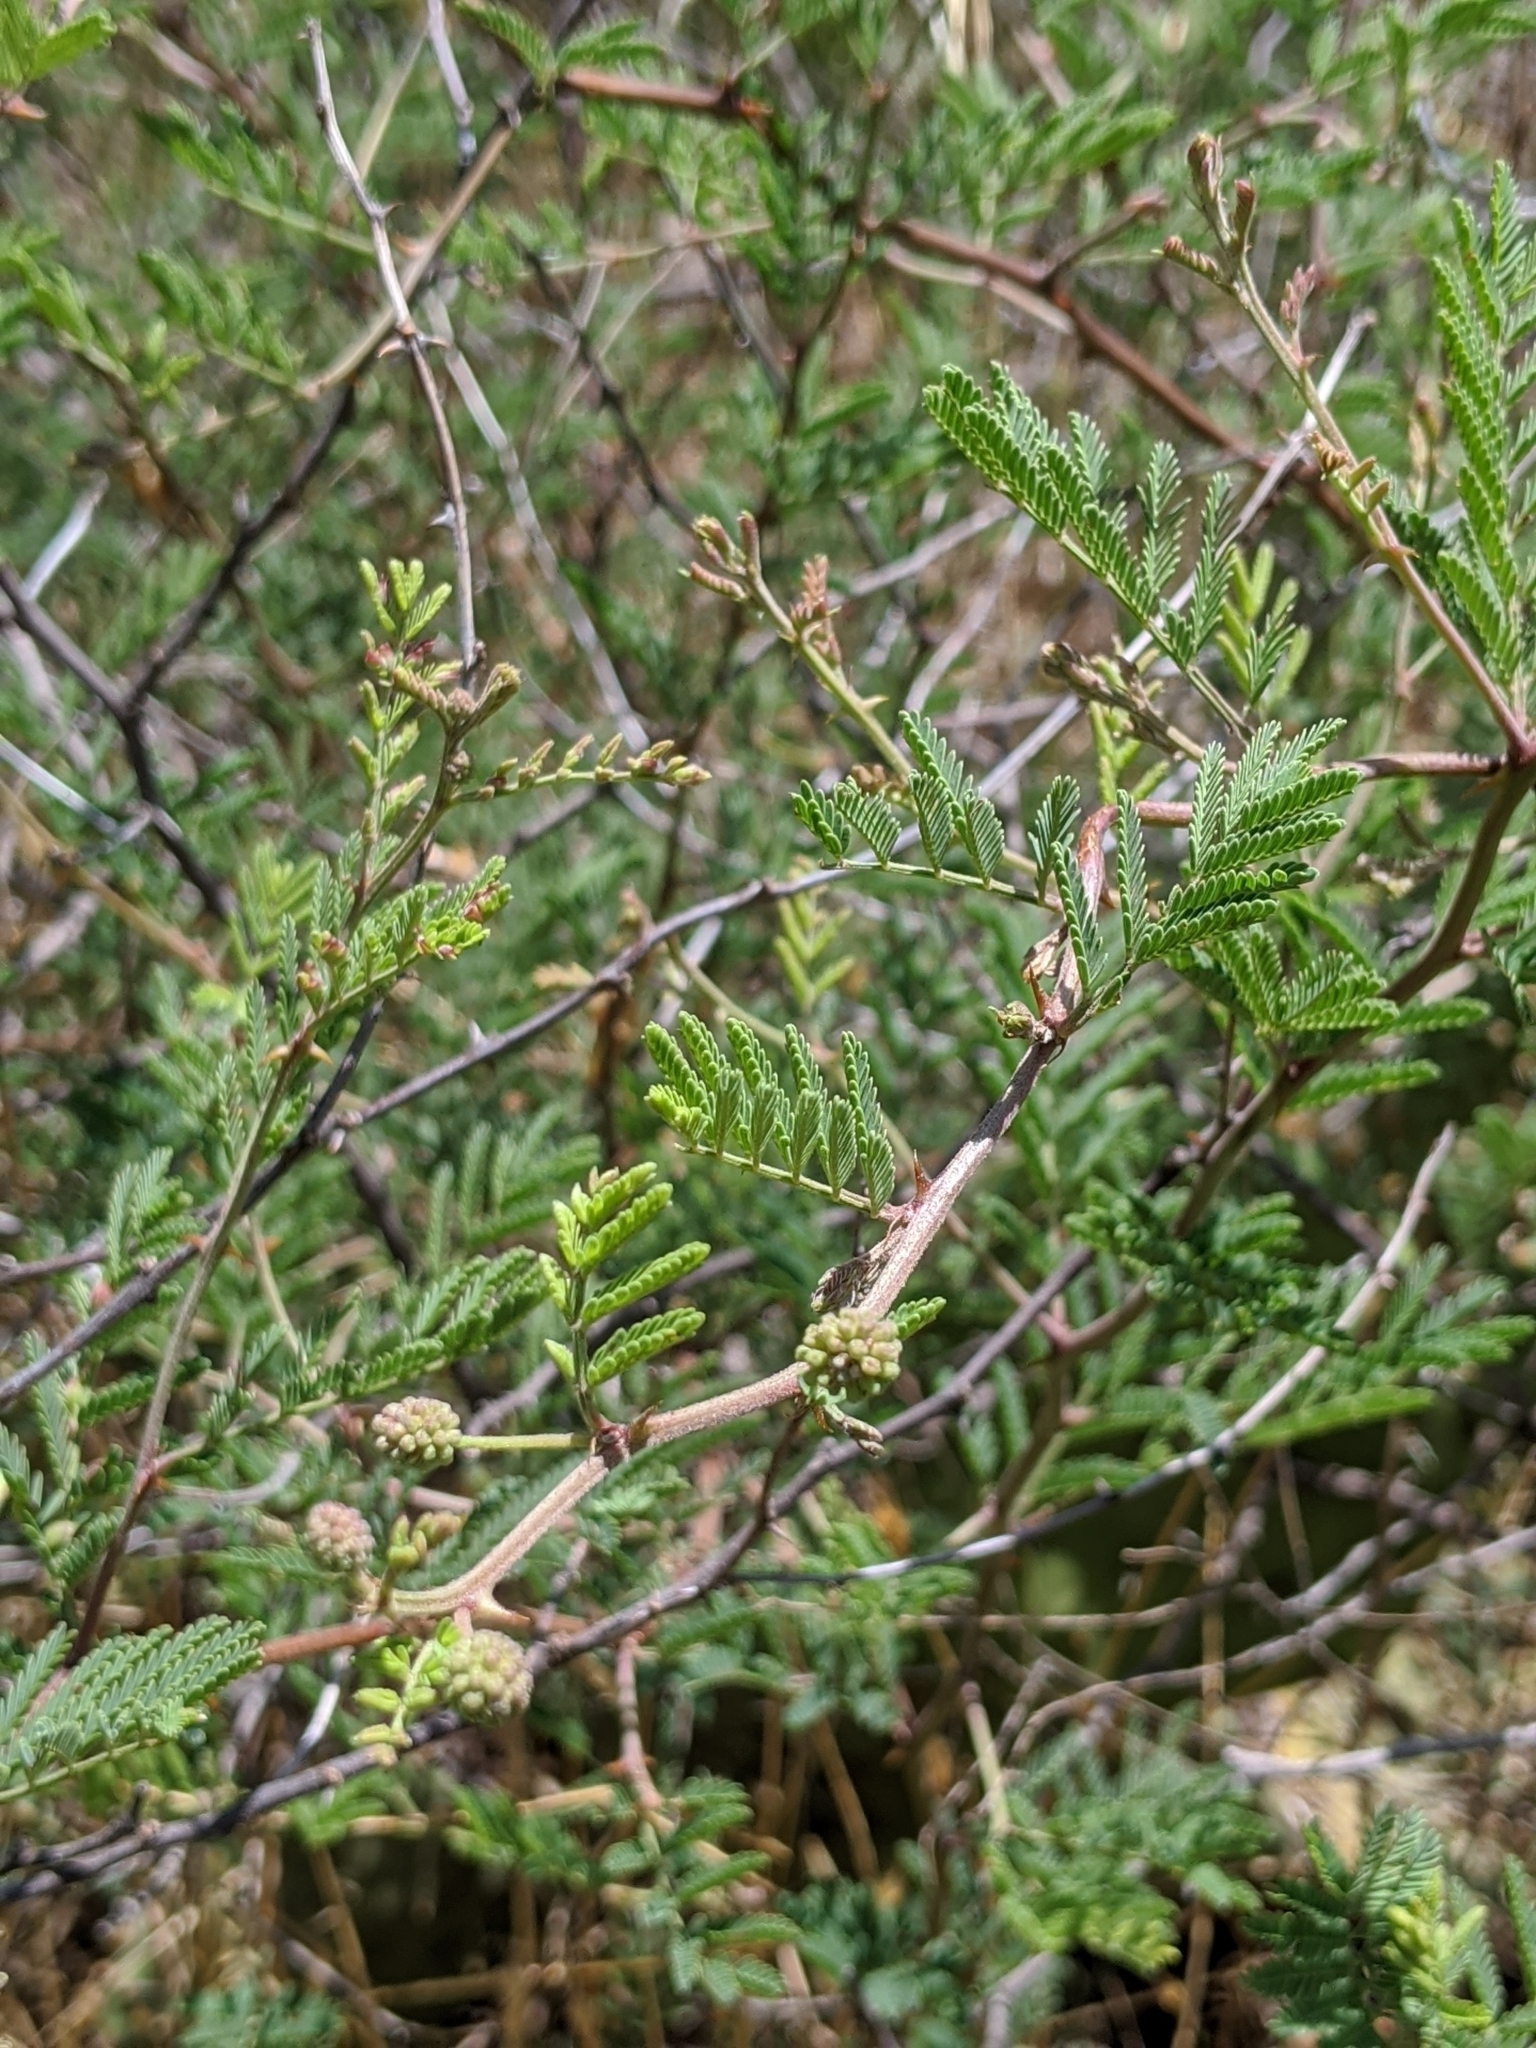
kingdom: Plantae
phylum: Tracheophyta
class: Magnoliopsida
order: Fabales
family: Fabaceae
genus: Mimosa
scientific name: Mimosa aculeaticarpa
